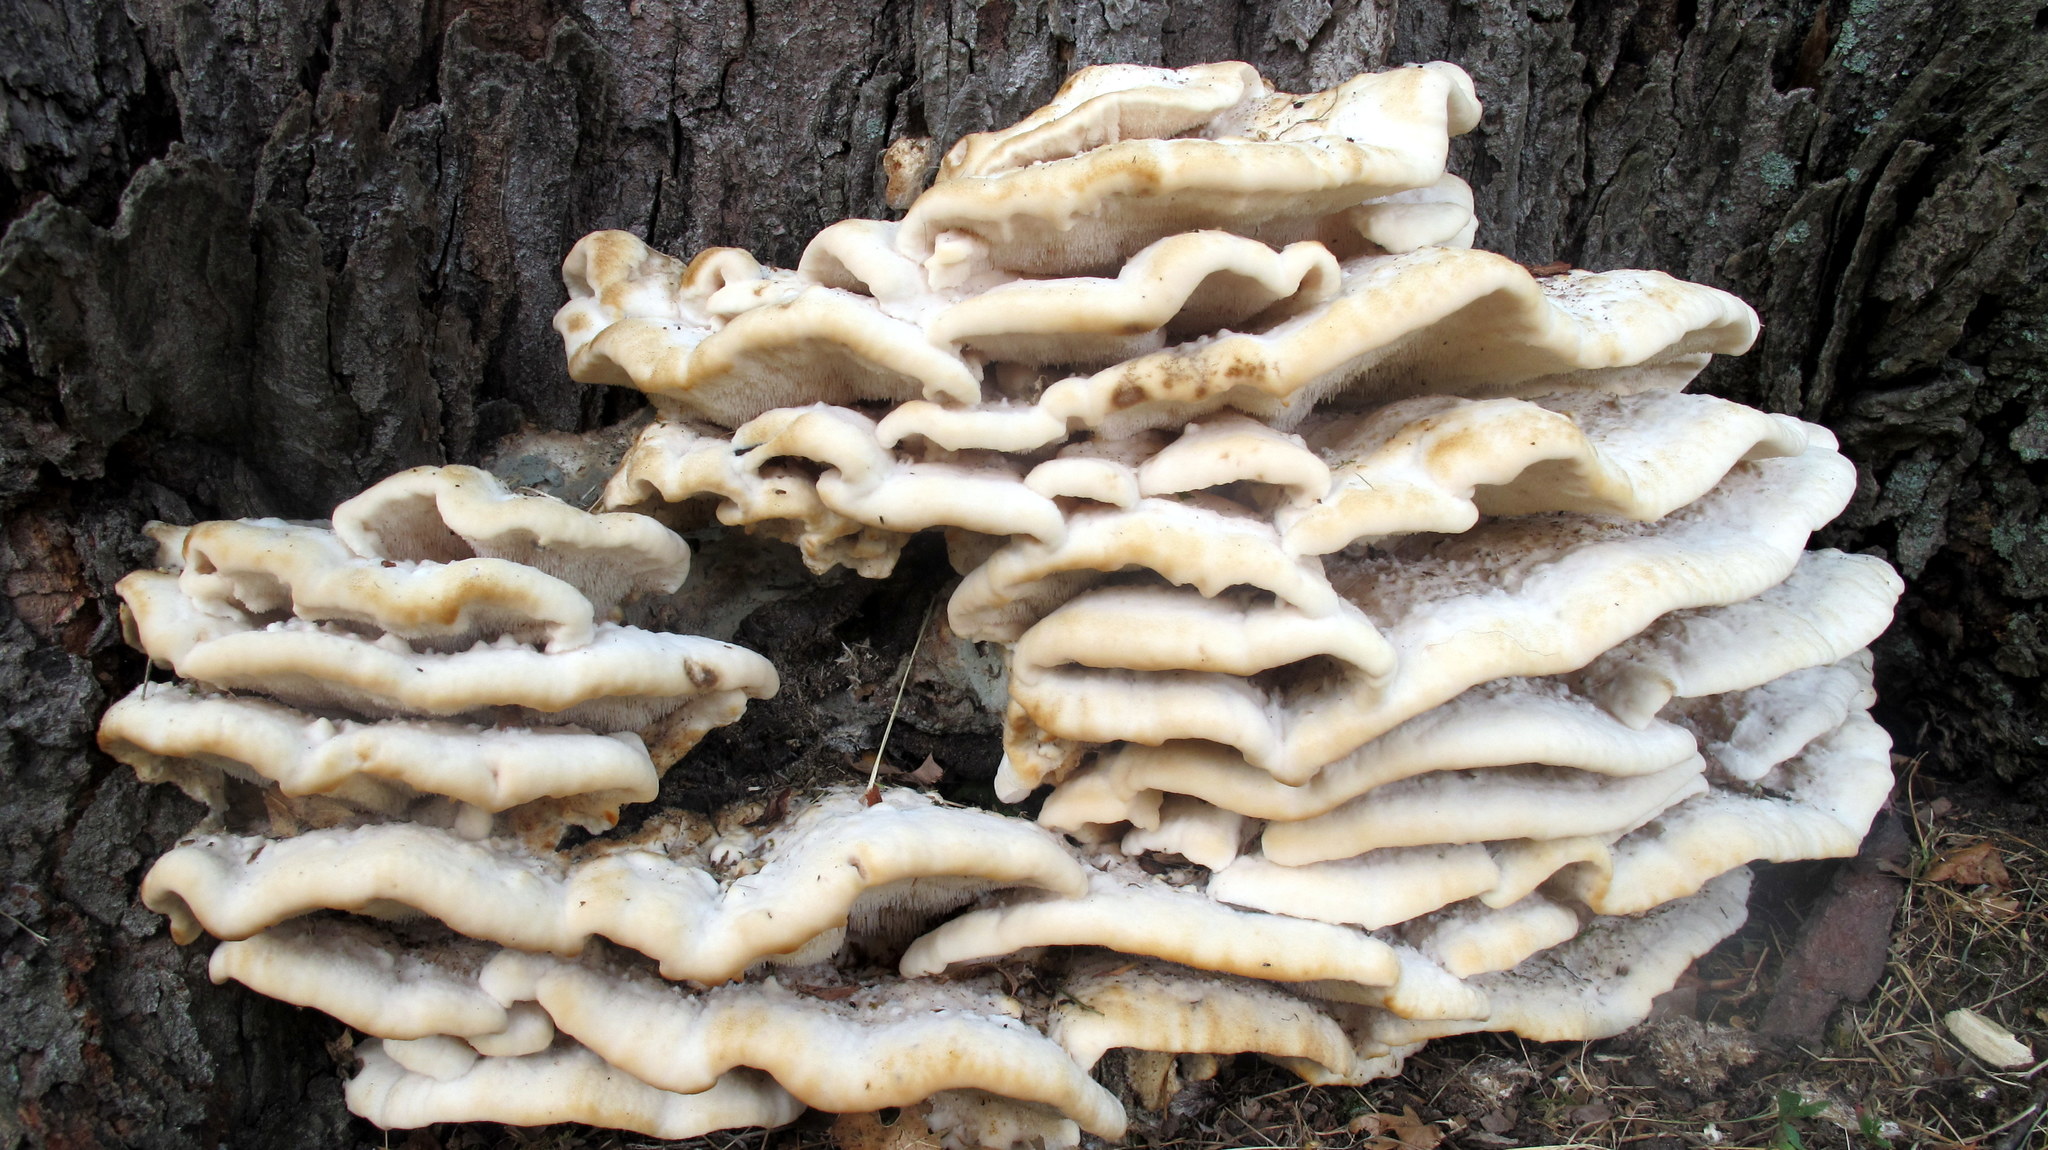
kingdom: Fungi
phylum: Basidiomycota
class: Agaricomycetes
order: Polyporales
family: Meruliaceae
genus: Climacodon
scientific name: Climacodon septentrionalis
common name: Northern tooth
